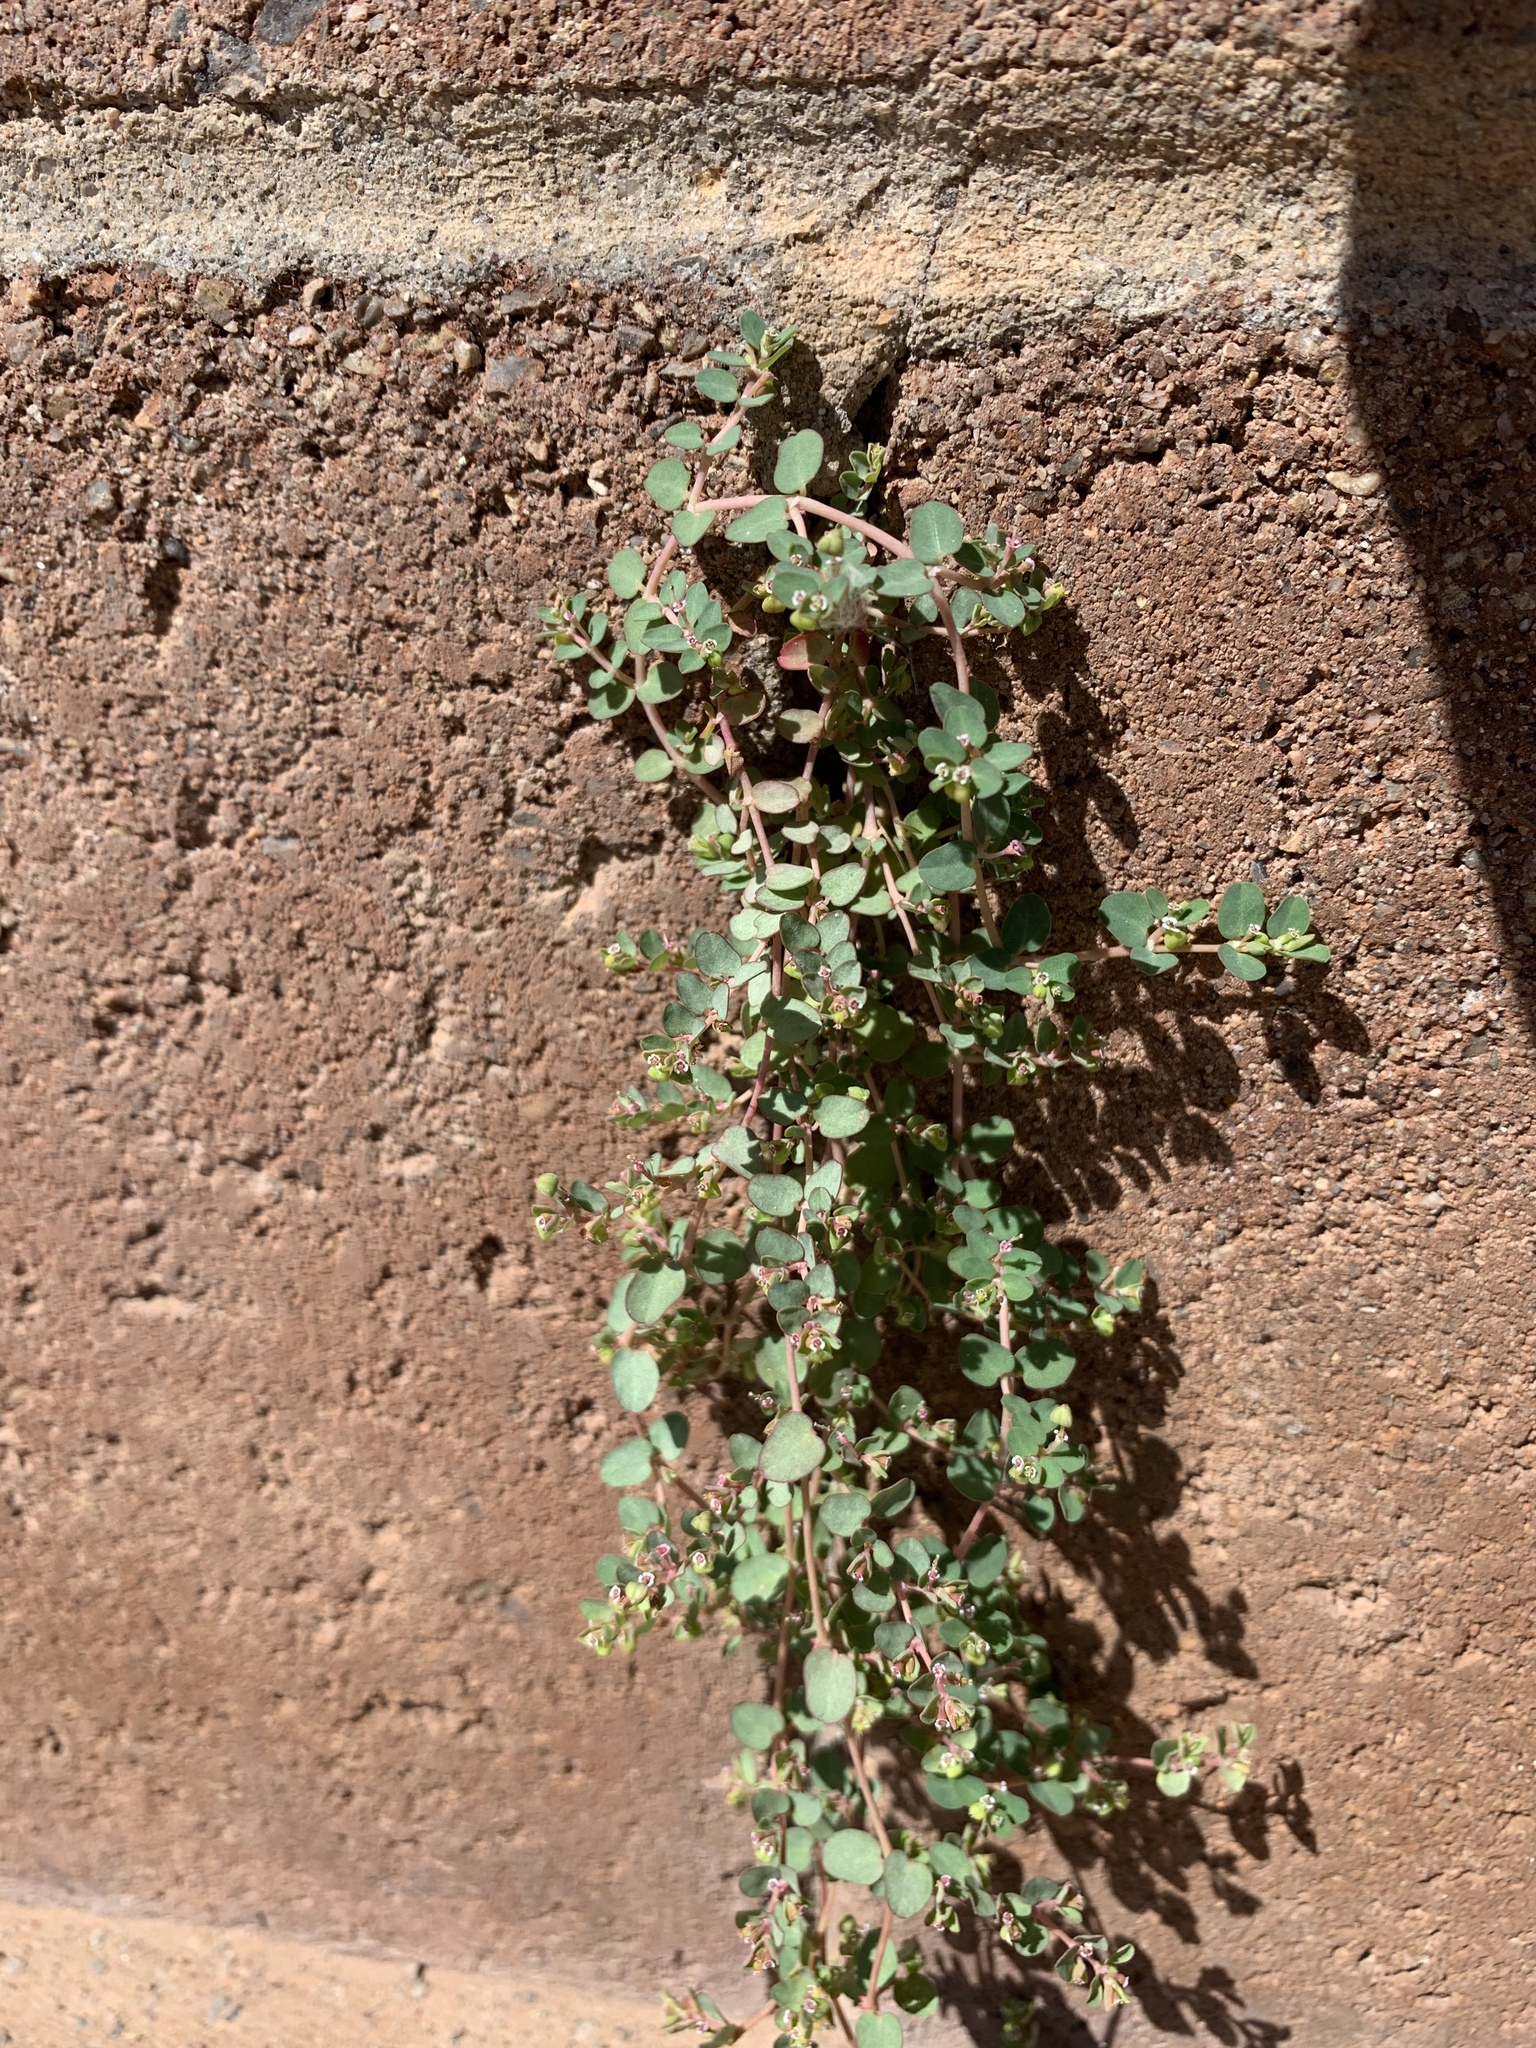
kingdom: Plantae
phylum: Tracheophyta
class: Magnoliopsida
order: Malpighiales
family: Euphorbiaceae
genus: Euphorbia
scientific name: Euphorbia serpens
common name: Matted sandmat
